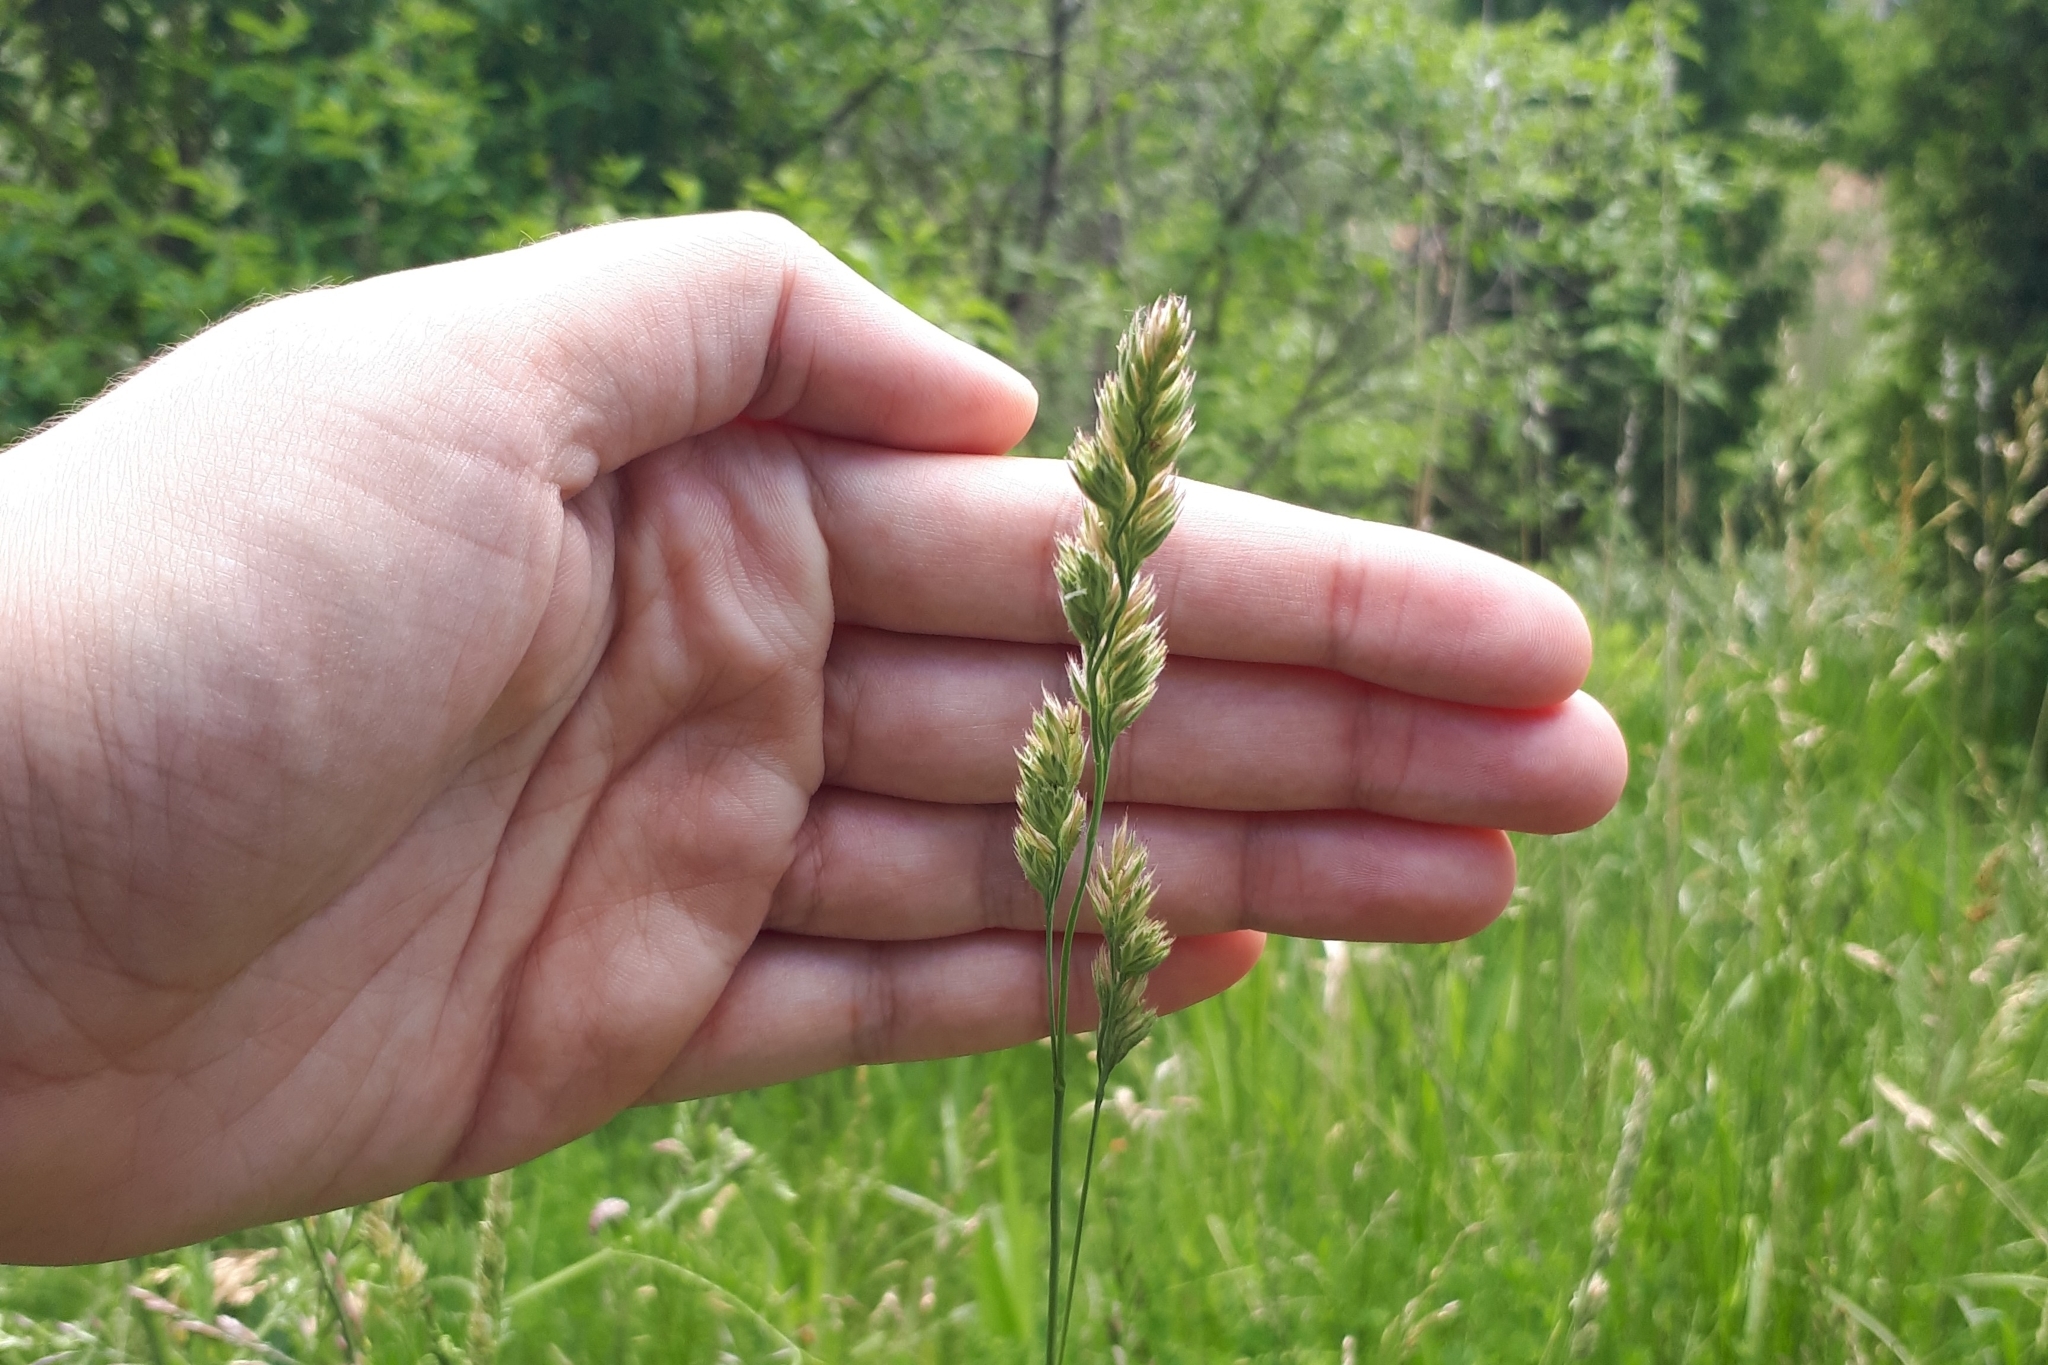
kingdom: Plantae
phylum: Tracheophyta
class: Liliopsida
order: Poales
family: Poaceae
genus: Dactylis
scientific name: Dactylis glomerata
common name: Orchardgrass
